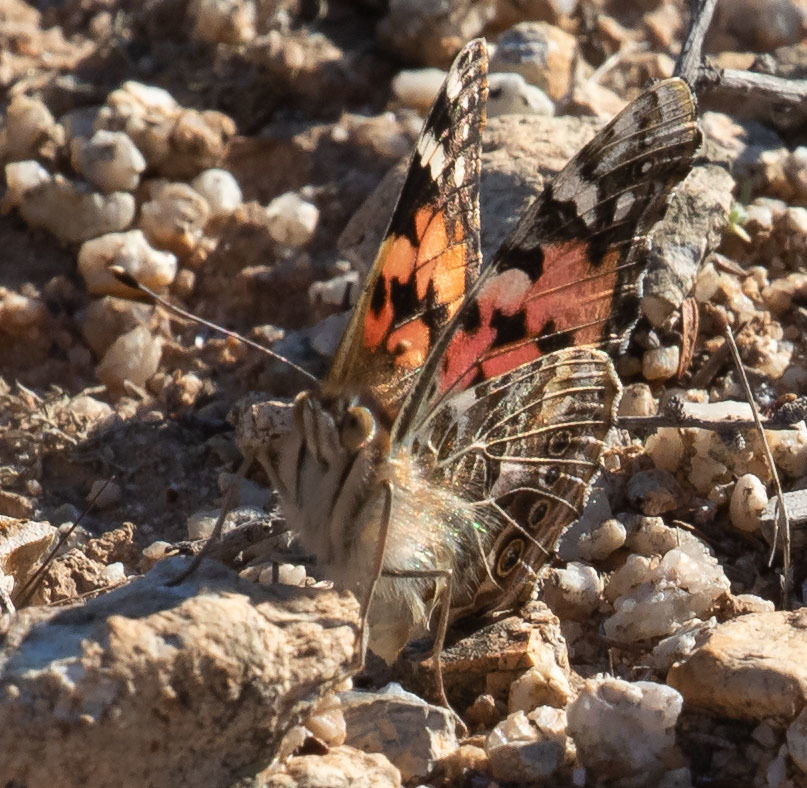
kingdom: Animalia
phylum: Arthropoda
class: Insecta
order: Lepidoptera
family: Nymphalidae
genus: Vanessa
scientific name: Vanessa cardui
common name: Painted lady
